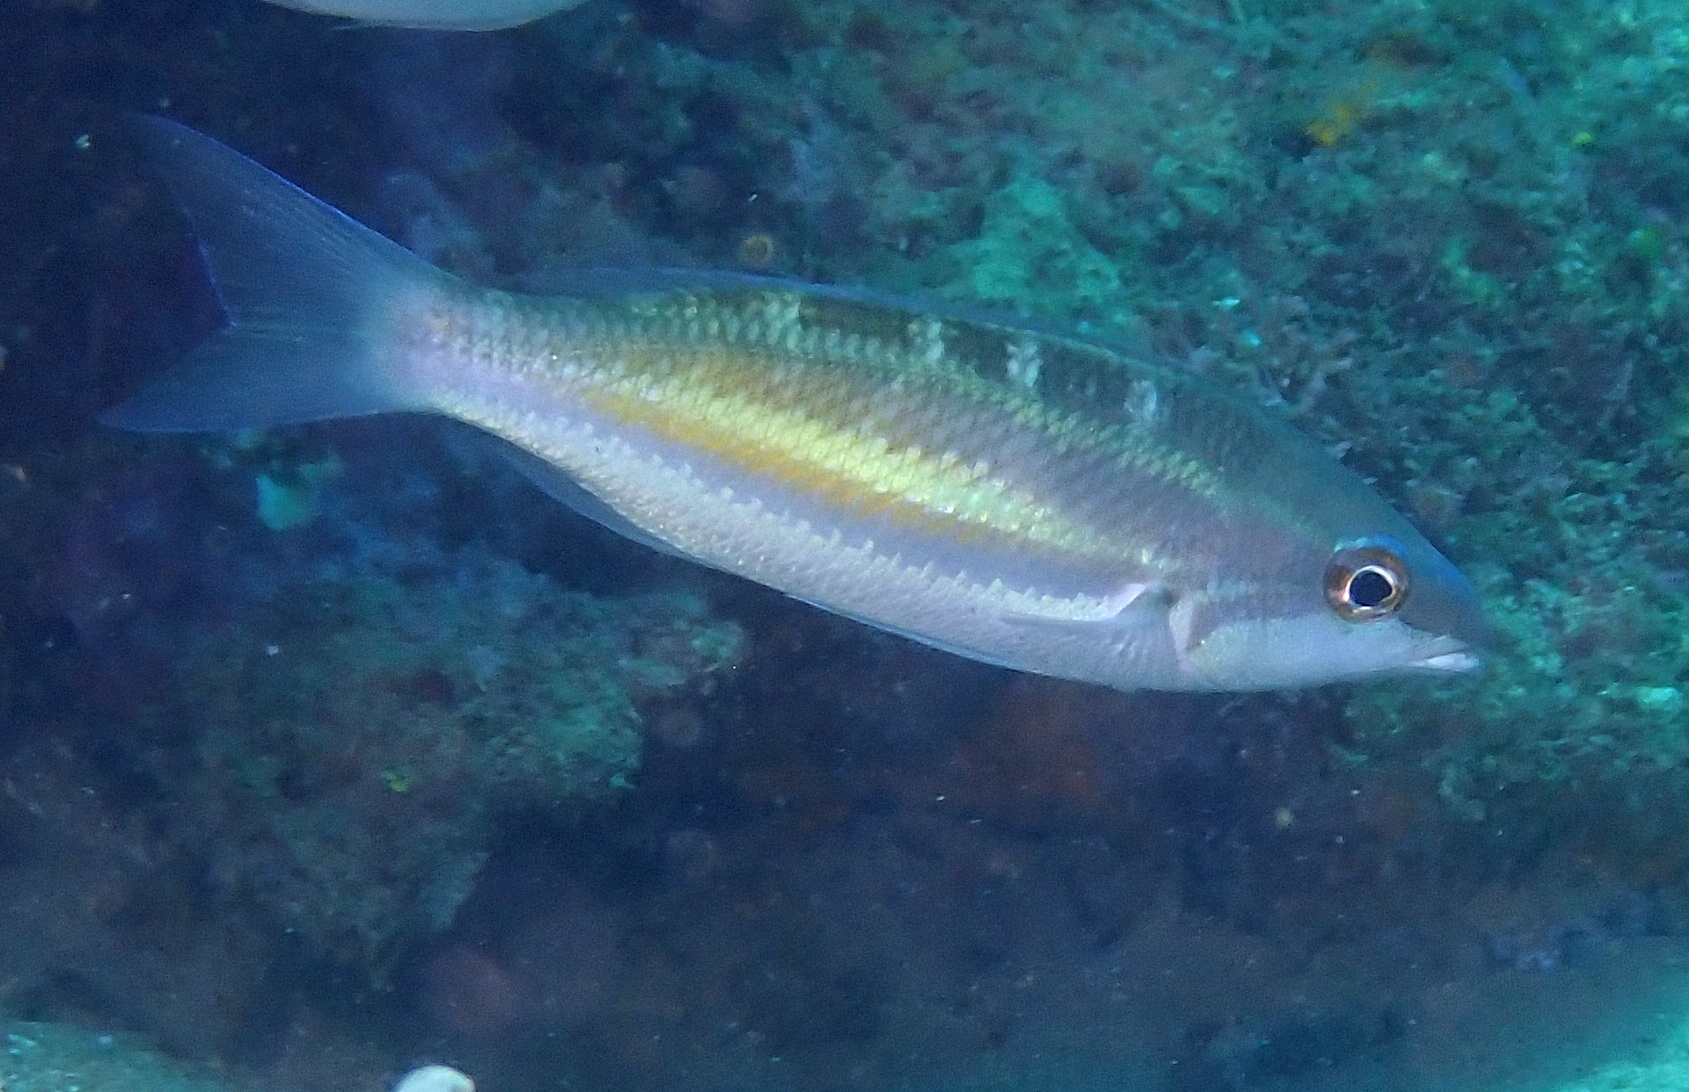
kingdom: Animalia
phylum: Chordata
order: Perciformes
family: Nemipteridae
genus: Pentapodus
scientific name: Pentapodus trivittatus
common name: Three-striped whiptail
